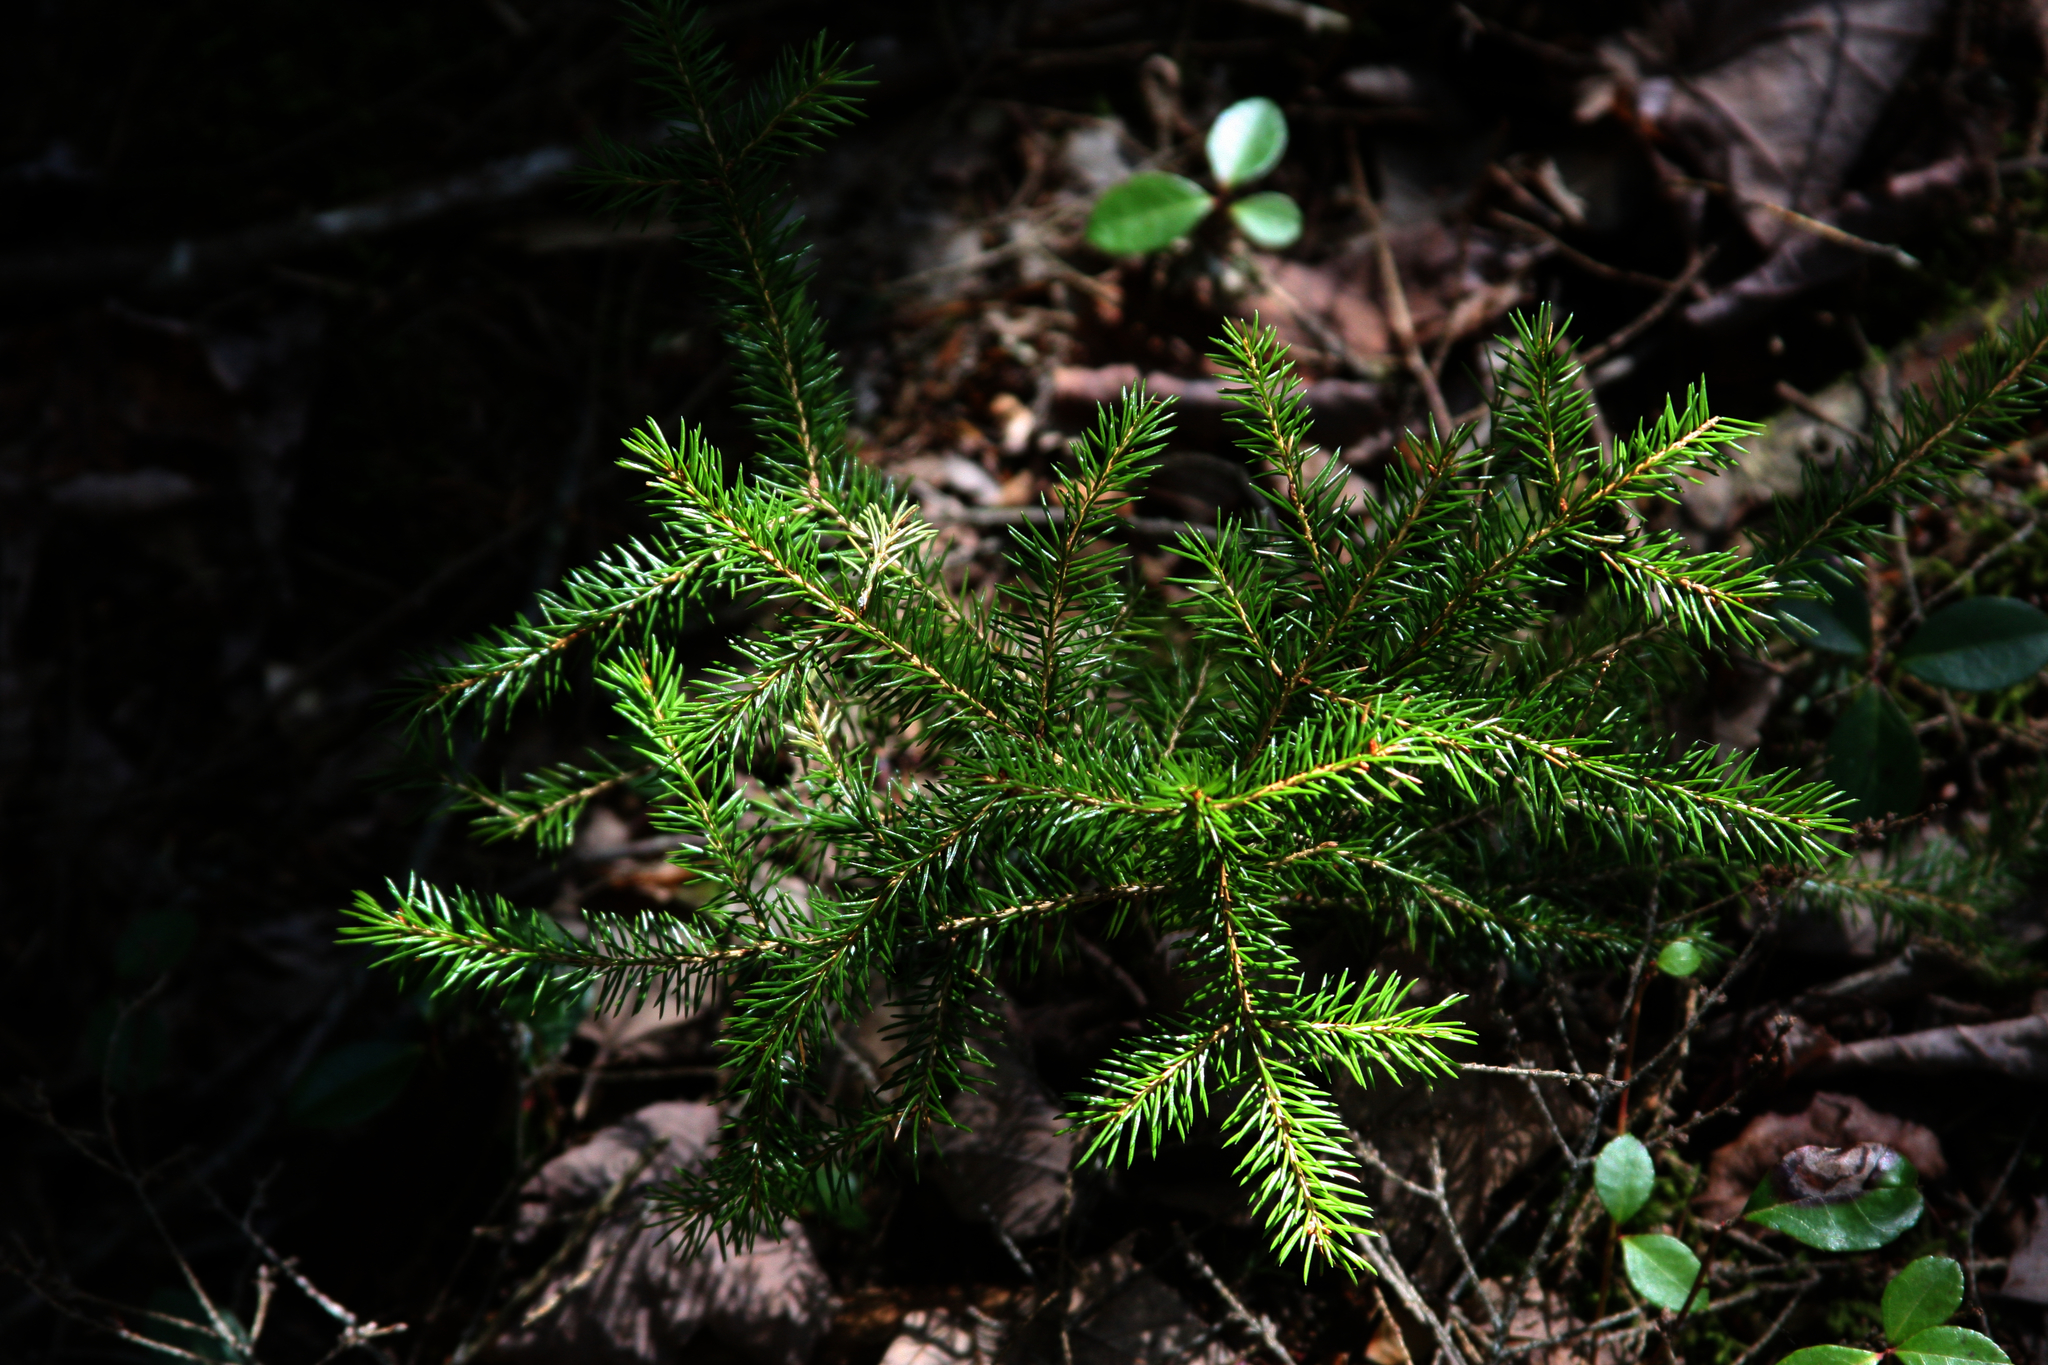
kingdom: Plantae
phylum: Tracheophyta
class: Pinopsida
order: Pinales
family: Pinaceae
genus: Picea
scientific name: Picea rubens
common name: Red spruce
